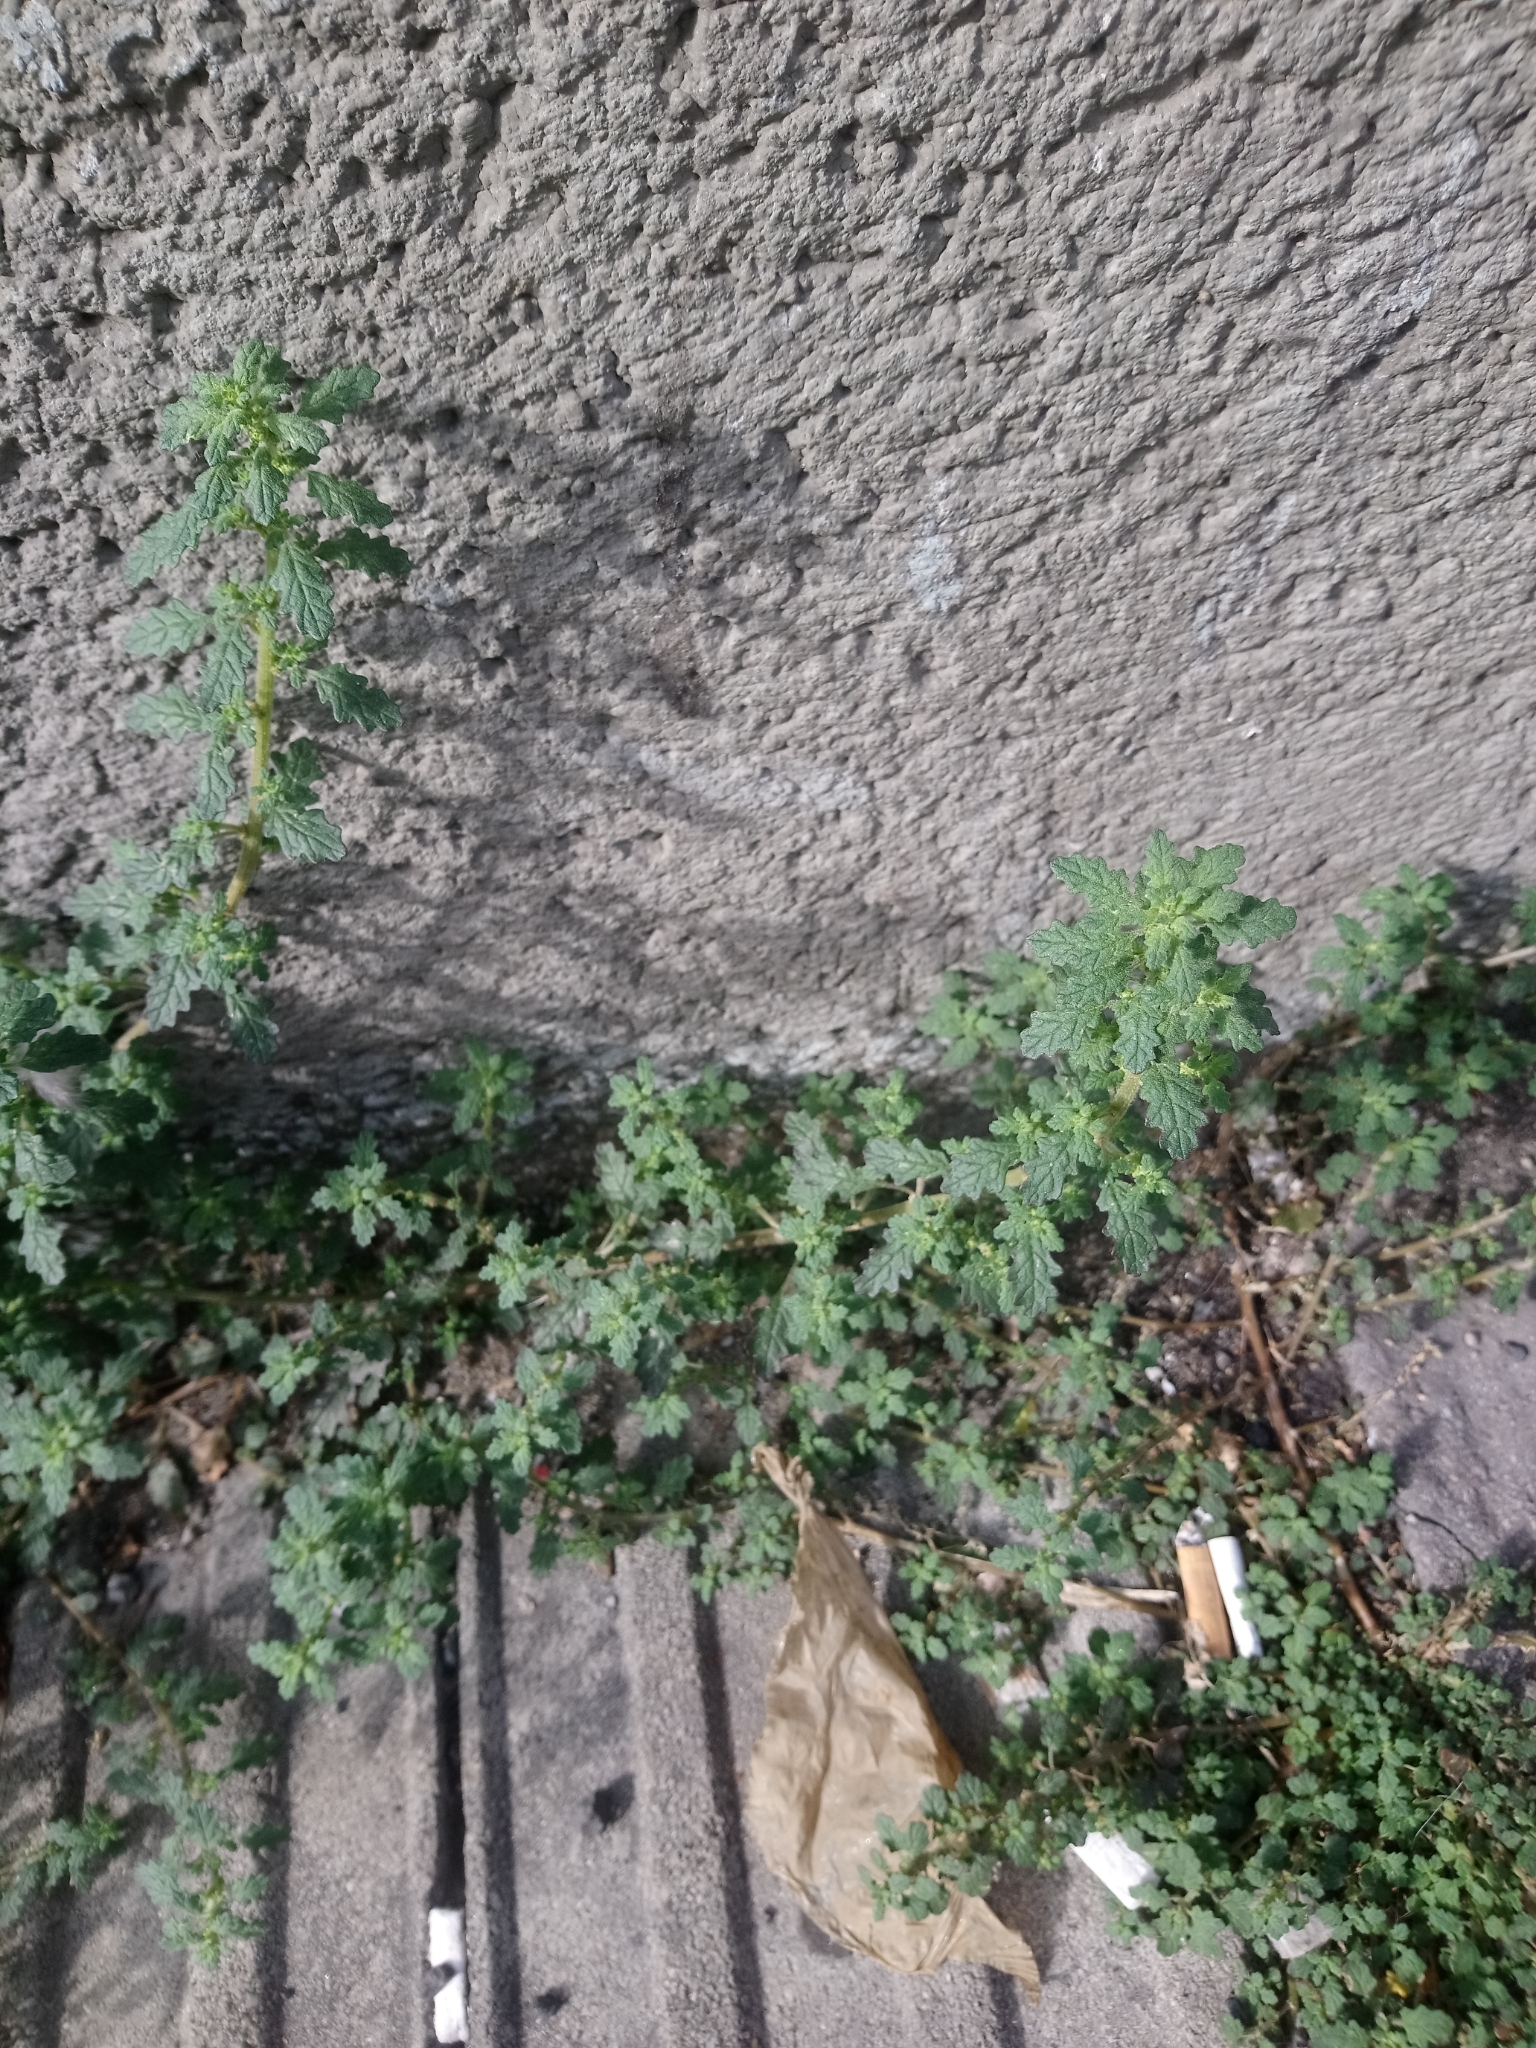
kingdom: Plantae
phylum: Tracheophyta
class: Magnoliopsida
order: Caryophyllales
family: Amaranthaceae
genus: Dysphania
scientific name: Dysphania pumilio
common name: Clammy goosefoot
